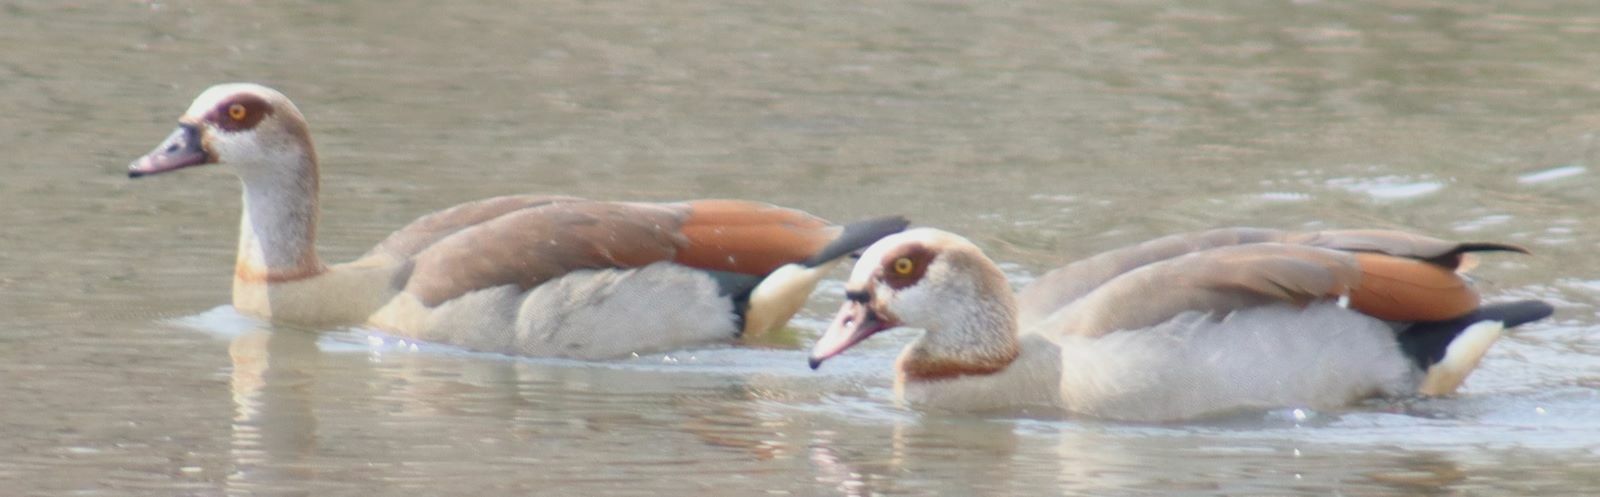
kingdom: Animalia
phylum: Chordata
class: Aves
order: Anseriformes
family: Anatidae
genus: Alopochen
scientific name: Alopochen aegyptiaca
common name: Egyptian goose
